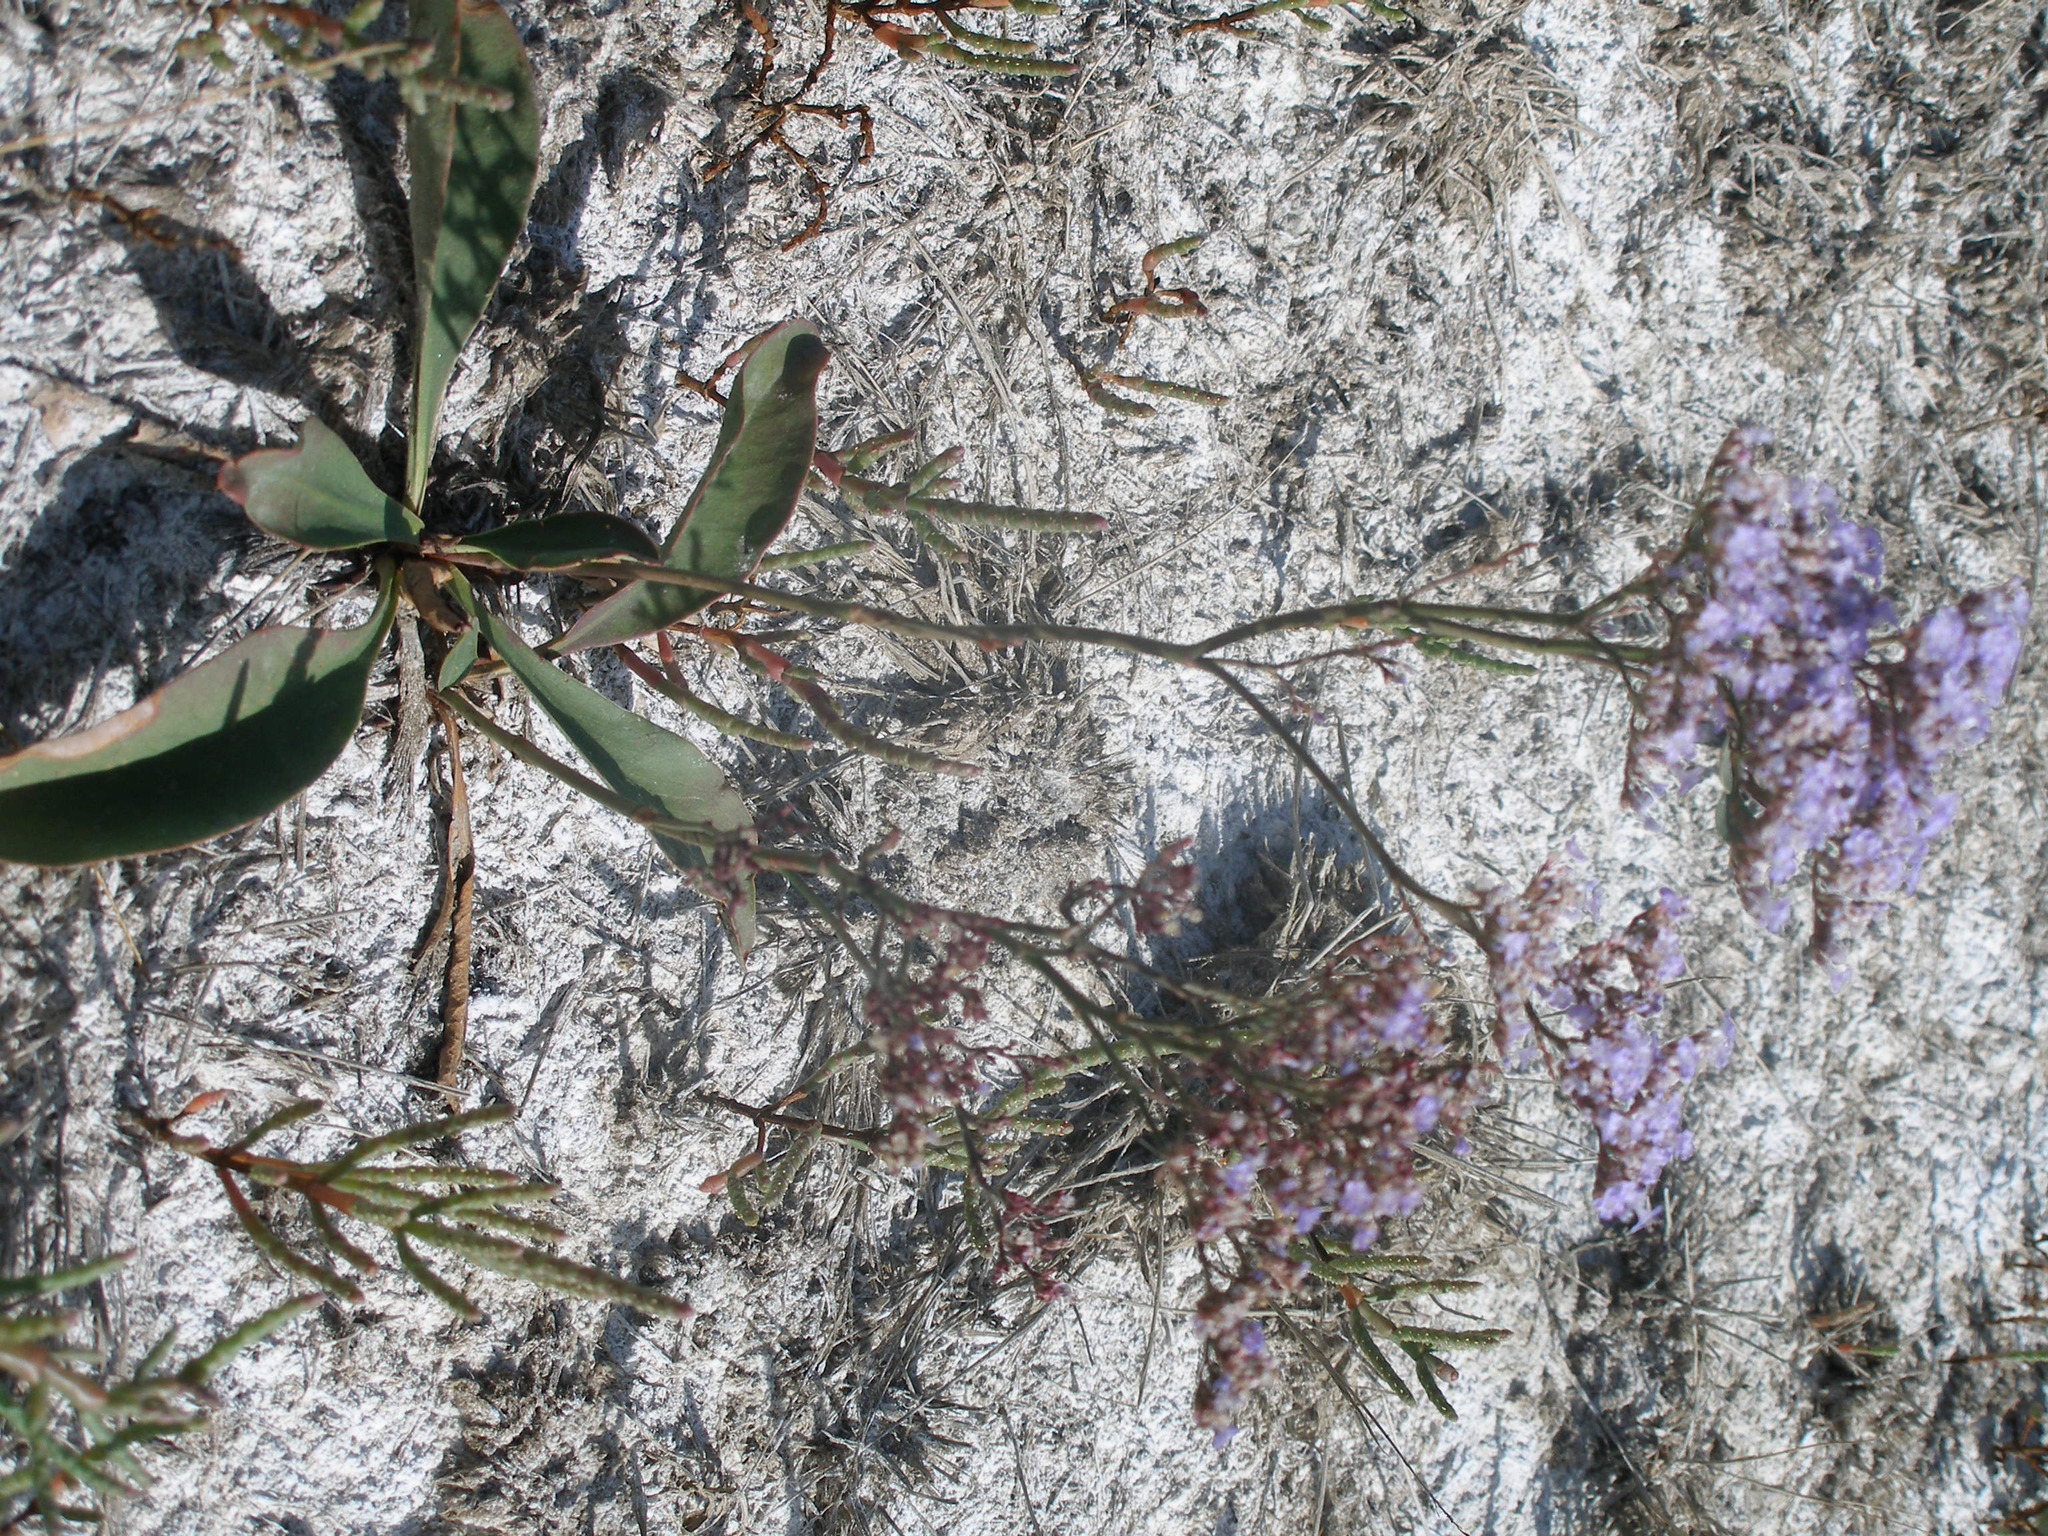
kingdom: Plantae
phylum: Tracheophyta
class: Magnoliopsida
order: Caryophyllales
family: Plumbaginaceae
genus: Limonium
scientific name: Limonium gmelini
